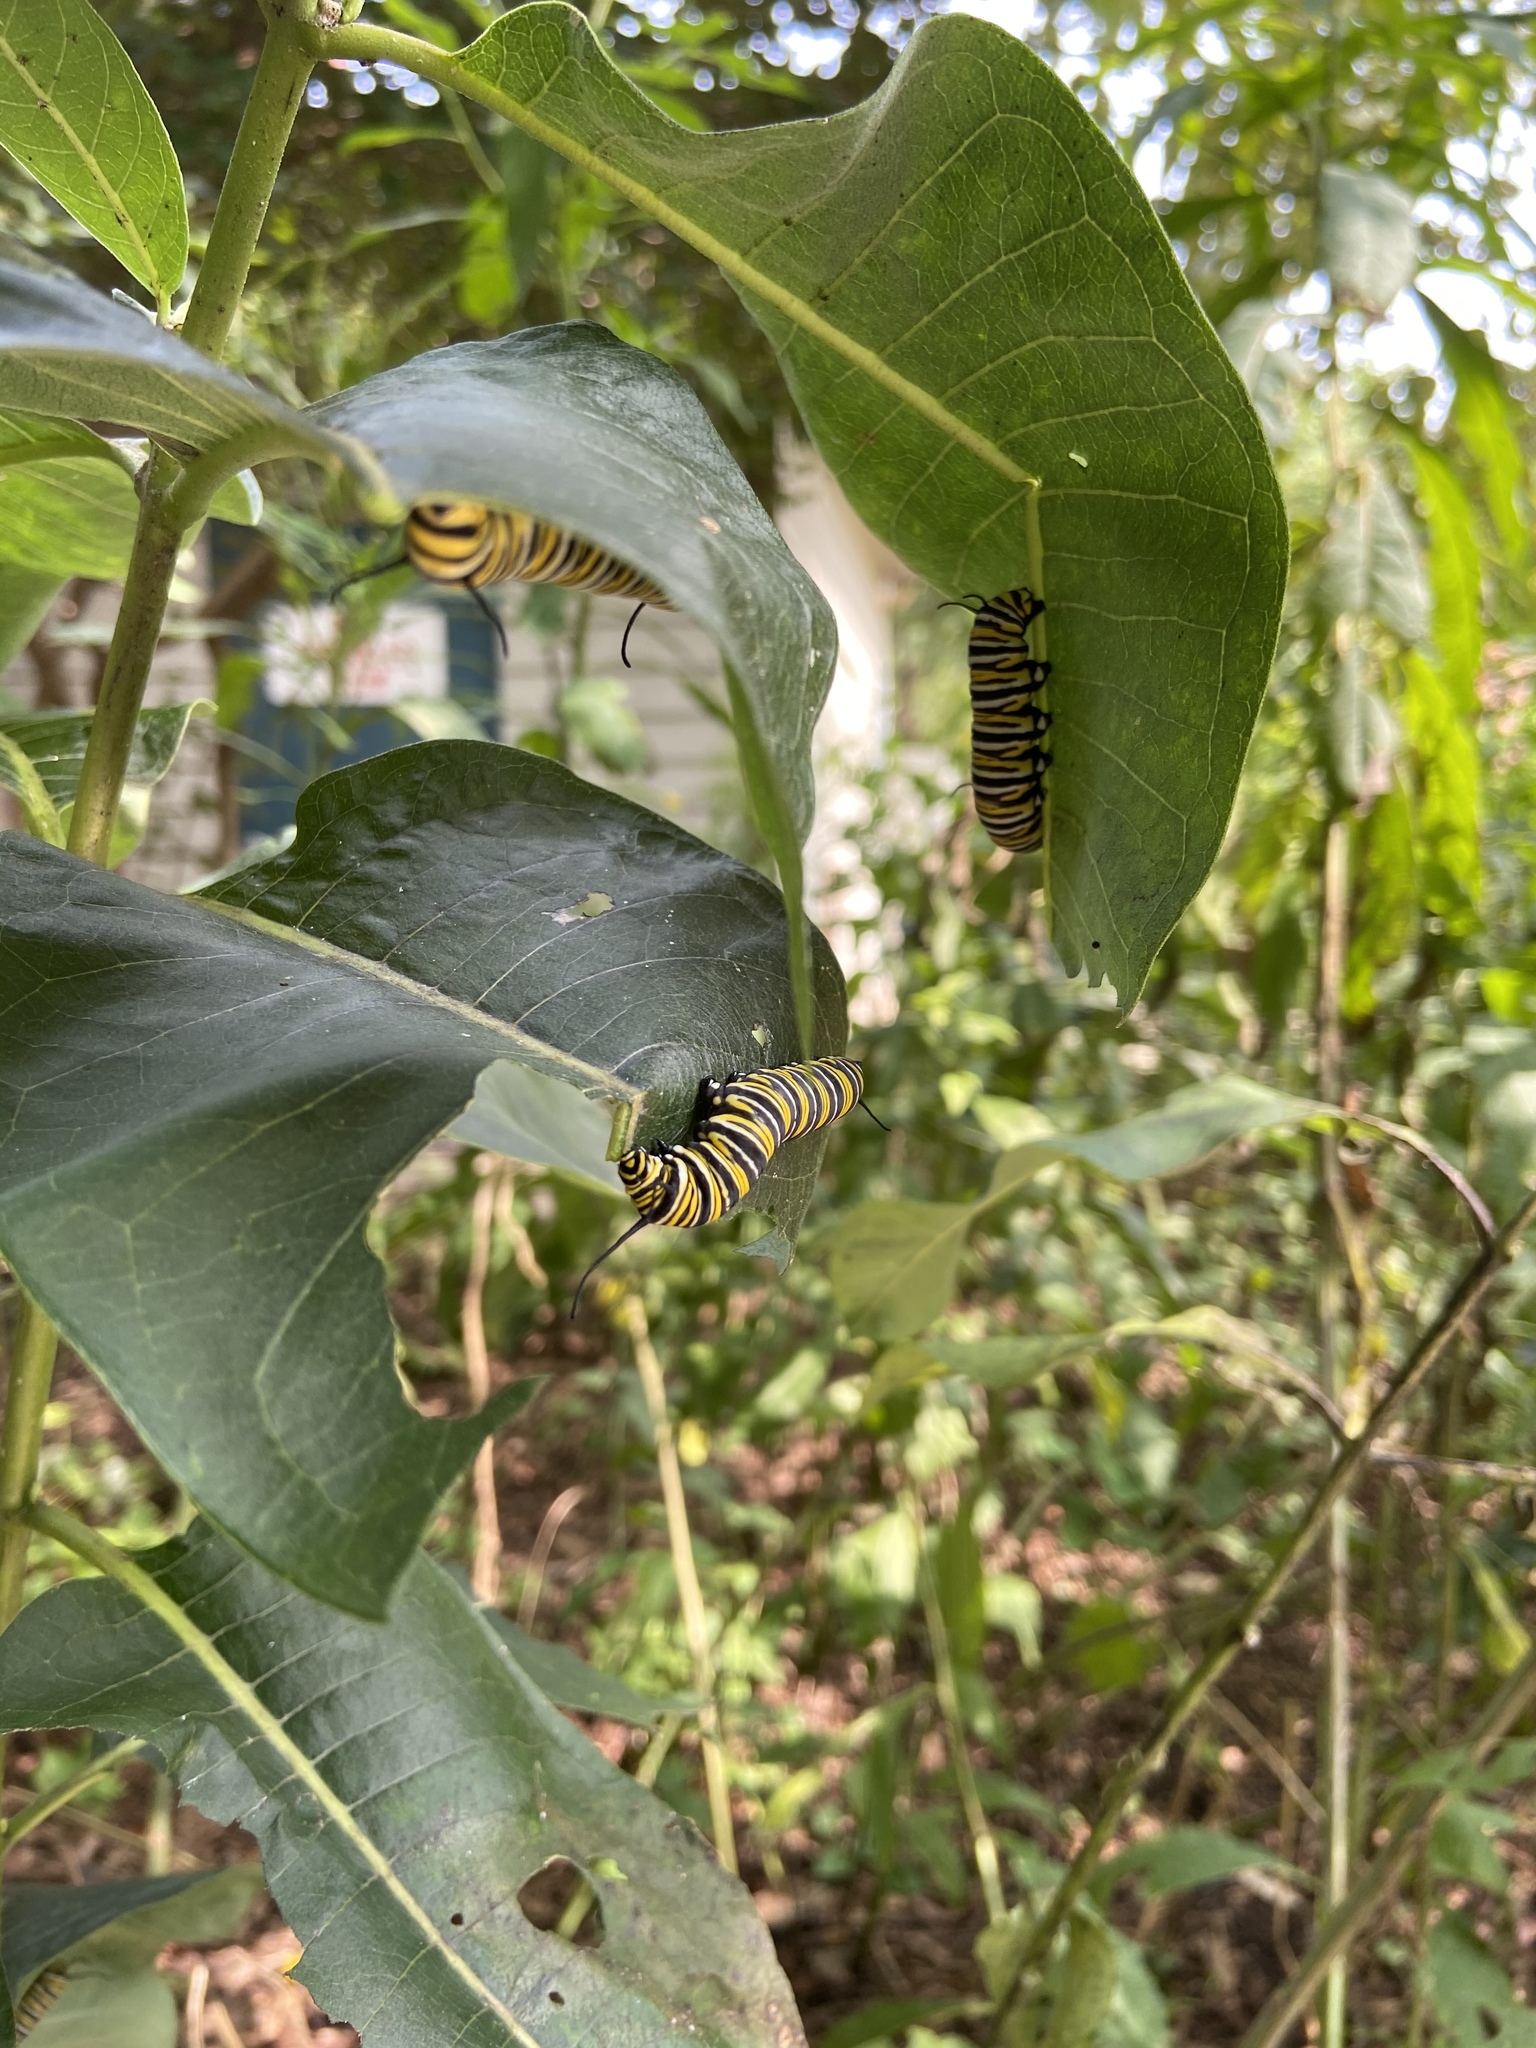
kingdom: Animalia
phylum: Arthropoda
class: Insecta
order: Lepidoptera
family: Nymphalidae
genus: Danaus
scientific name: Danaus plexippus
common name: Monarch
